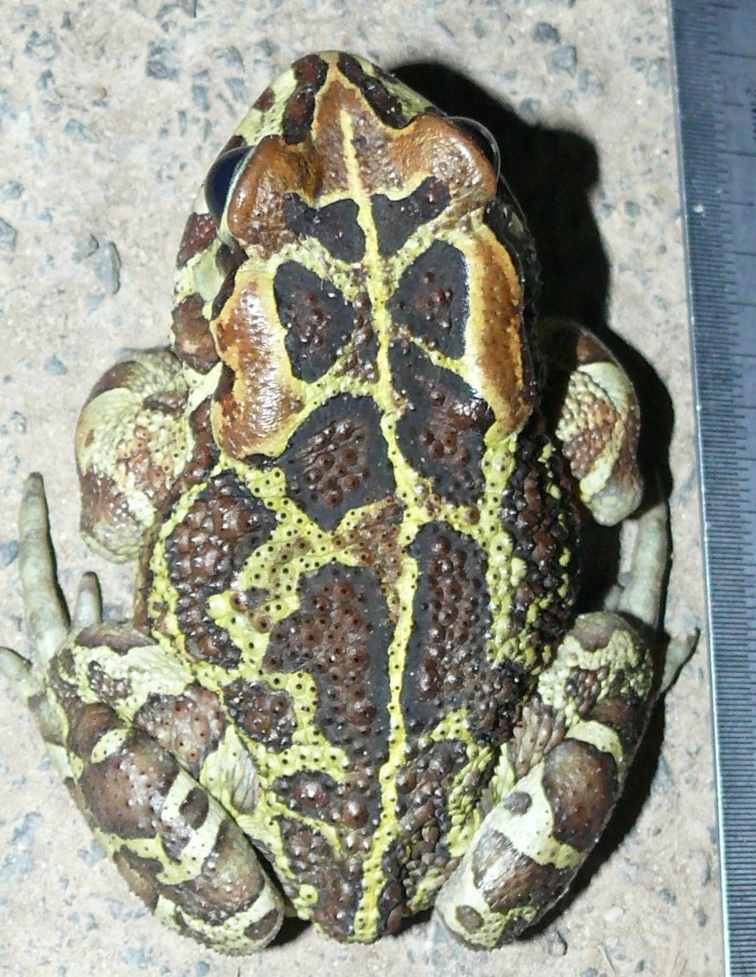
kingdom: Animalia
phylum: Chordata
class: Amphibia
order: Anura
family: Bufonidae
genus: Sclerophrys
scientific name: Sclerophrys pantherina
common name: Panther toad
